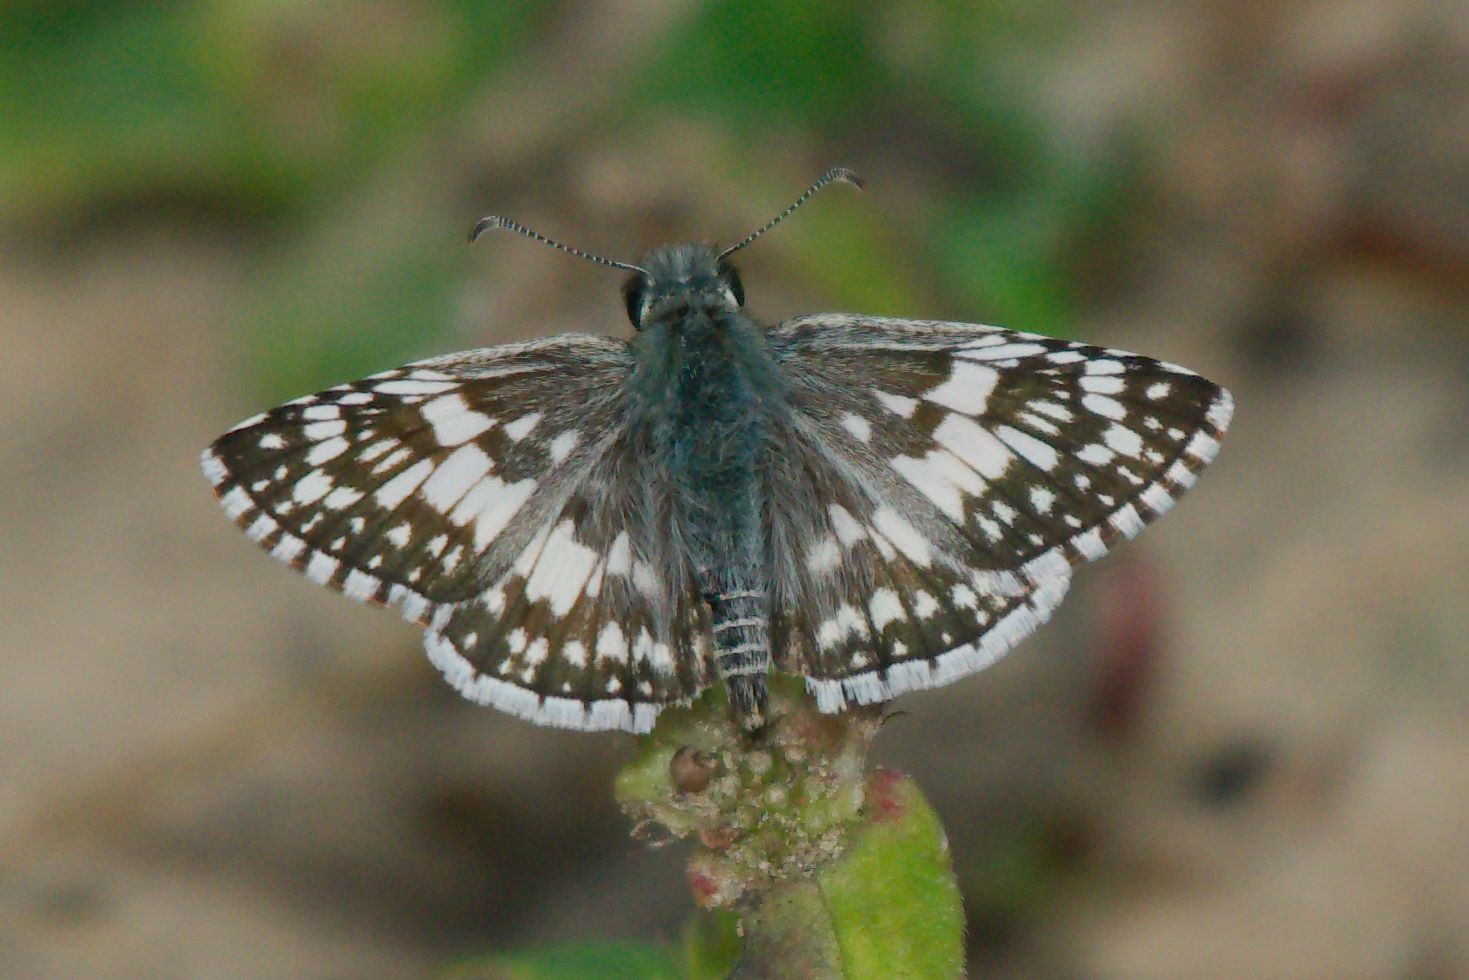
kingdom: Animalia
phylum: Arthropoda
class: Insecta
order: Lepidoptera
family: Hesperiidae
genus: Burnsius
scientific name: Burnsius albezens
